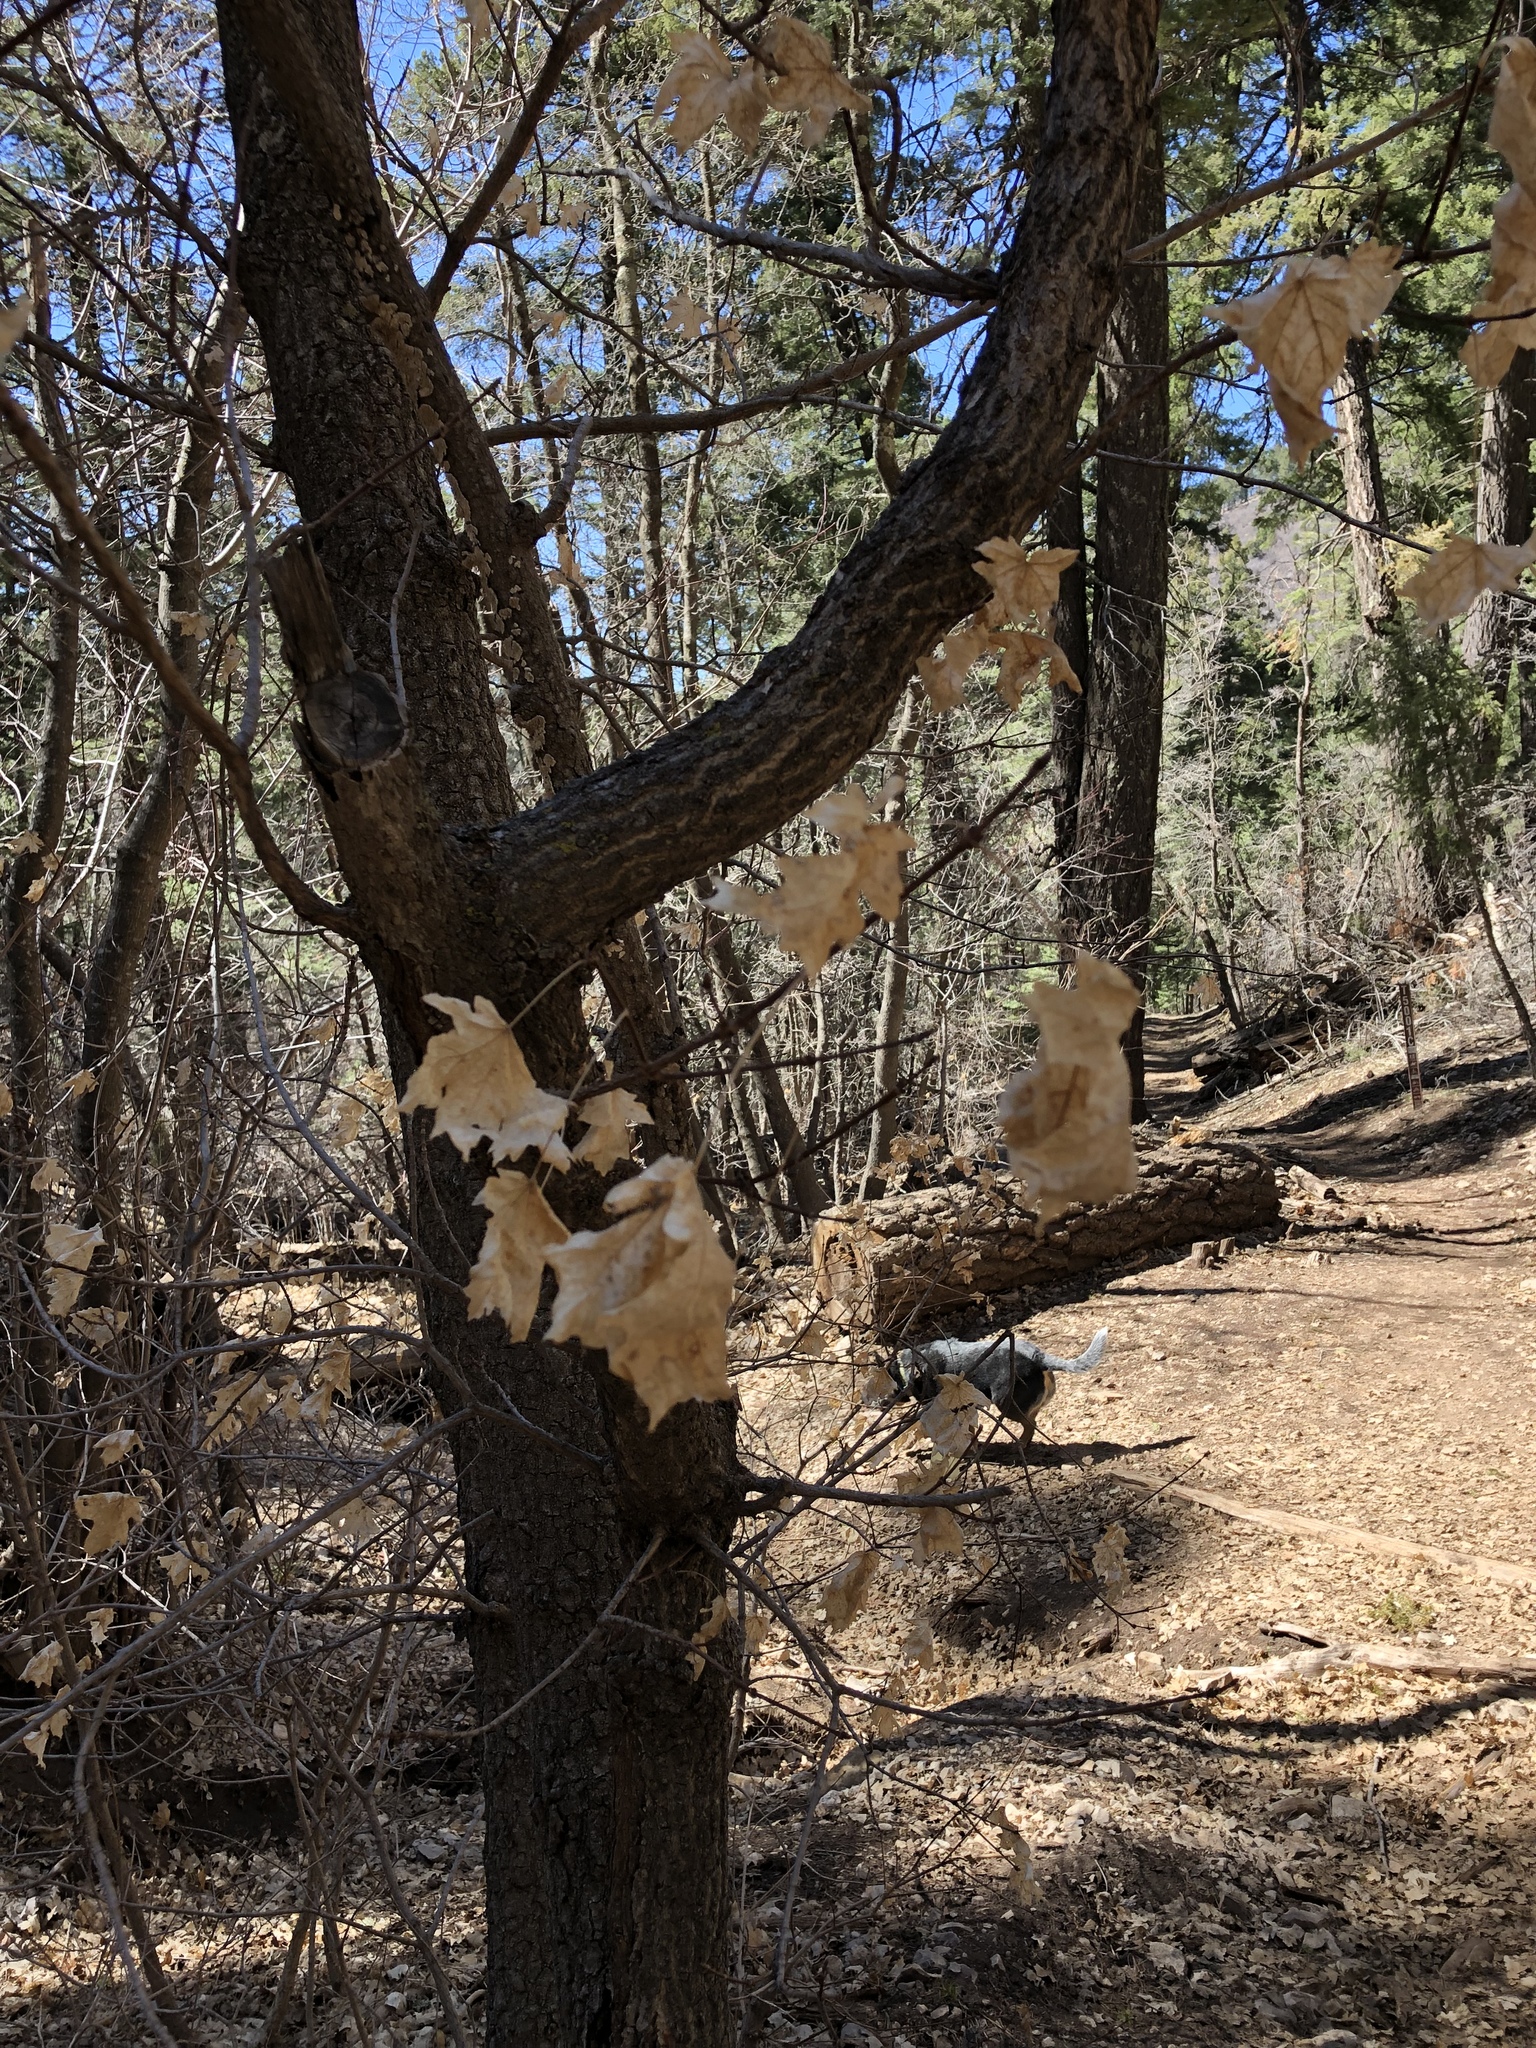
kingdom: Plantae
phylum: Tracheophyta
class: Magnoliopsida
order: Sapindales
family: Sapindaceae
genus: Acer
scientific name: Acer grandidentatum
